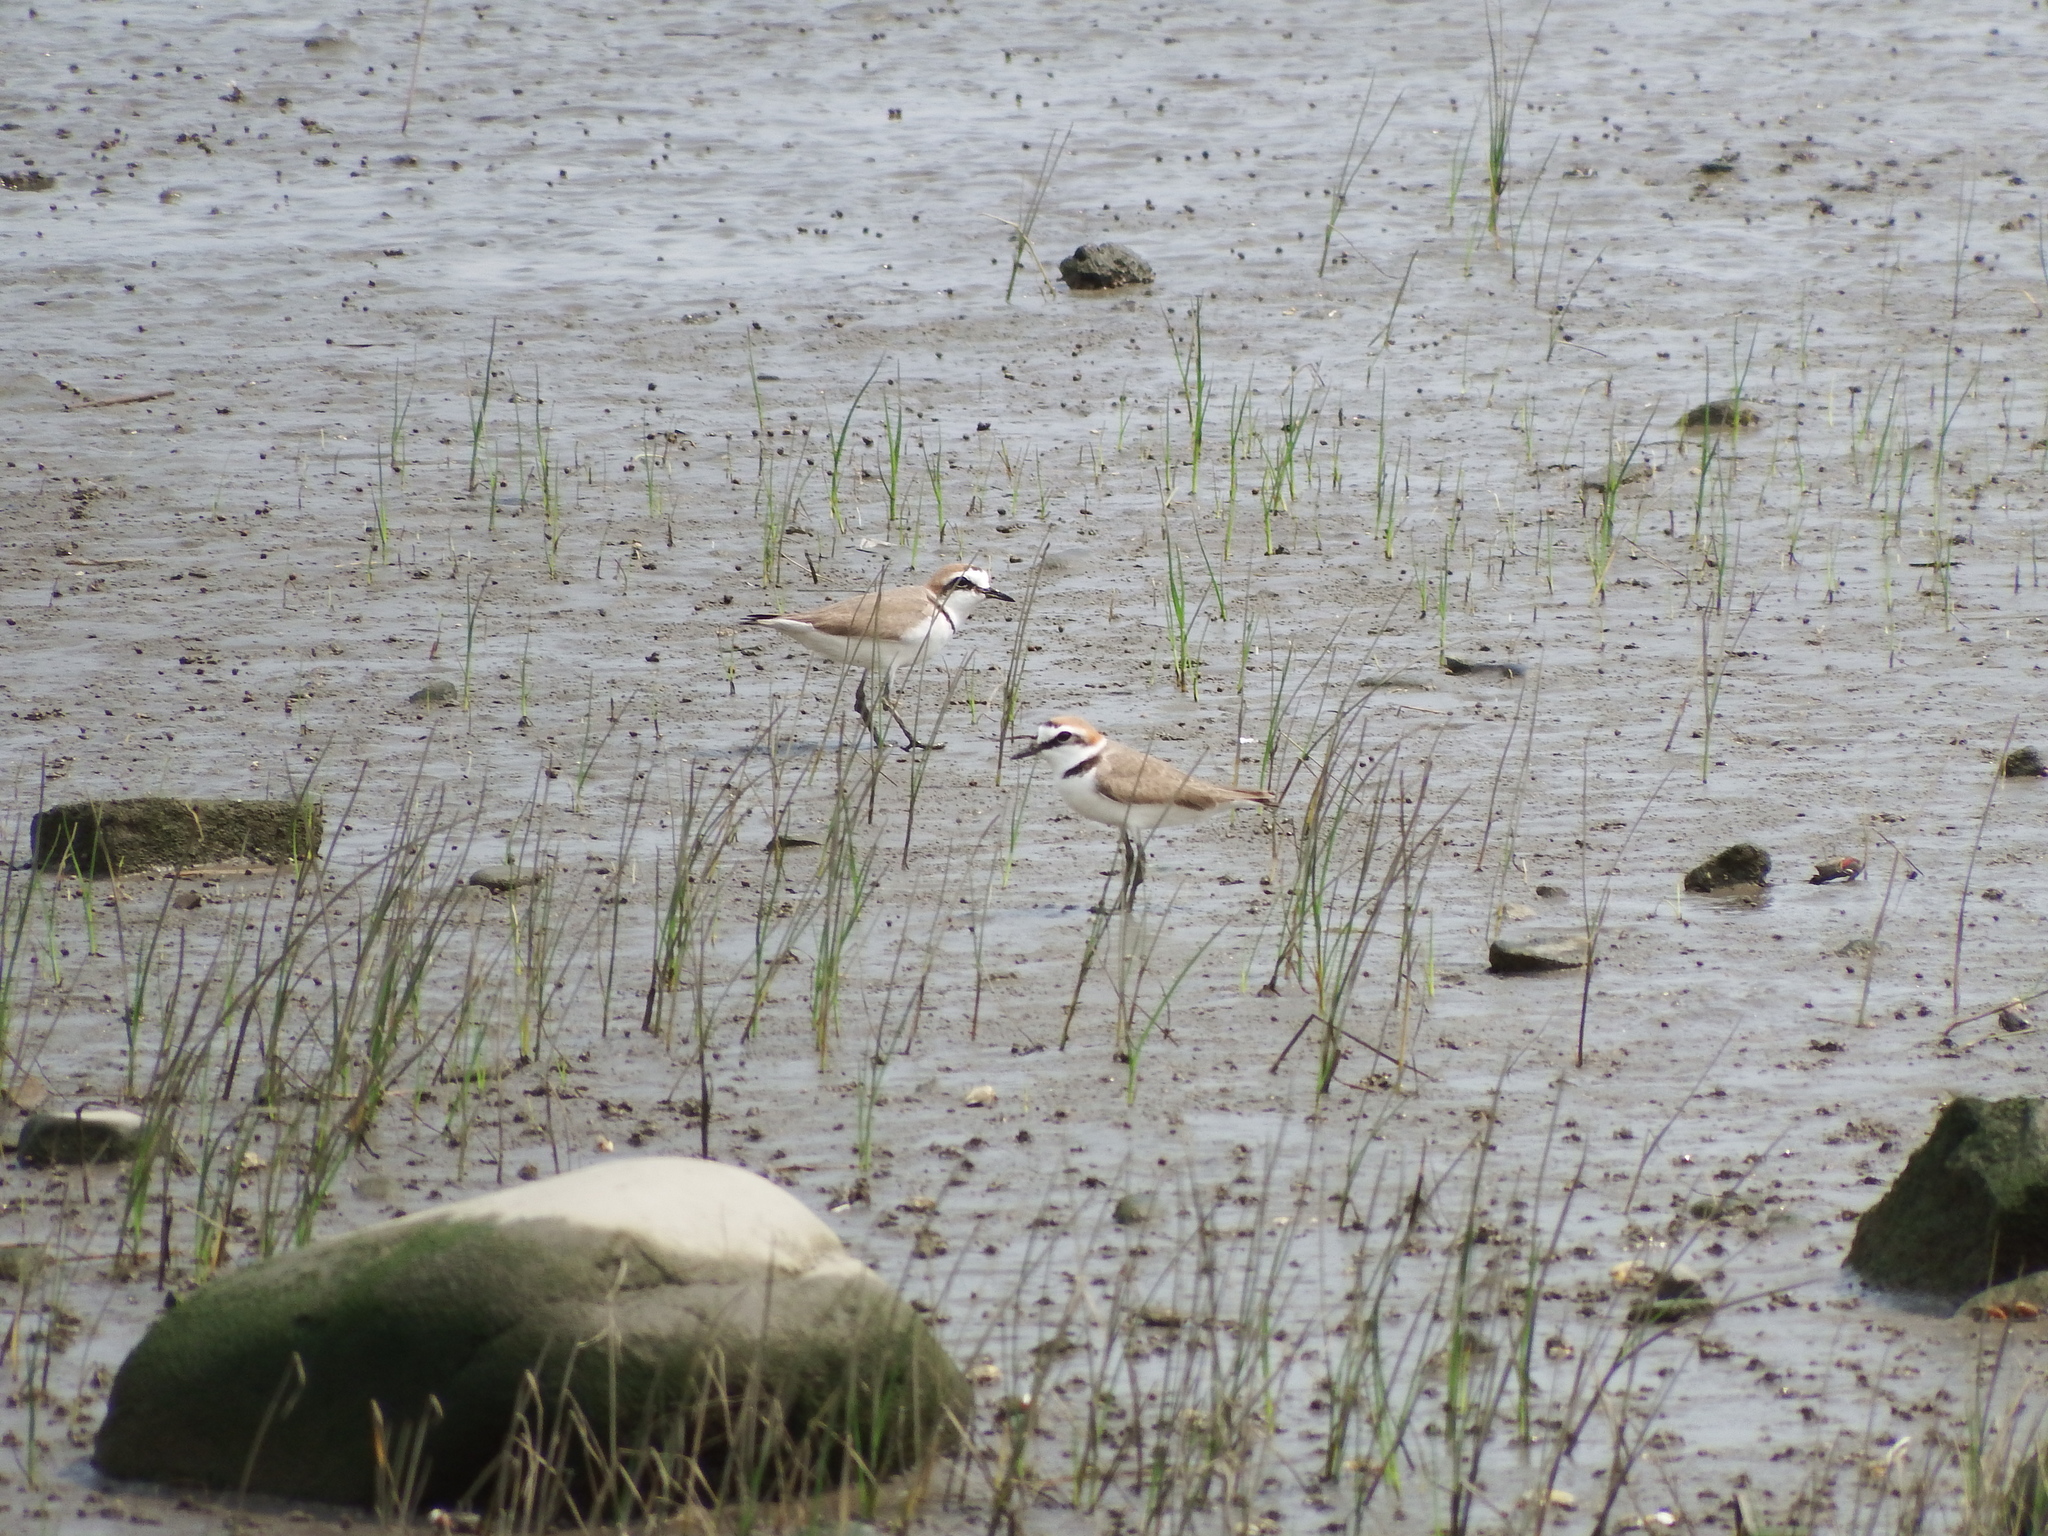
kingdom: Animalia
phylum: Chordata
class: Aves
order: Charadriiformes
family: Charadriidae
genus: Charadrius
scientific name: Charadrius alexandrinus
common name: Kentish plover
